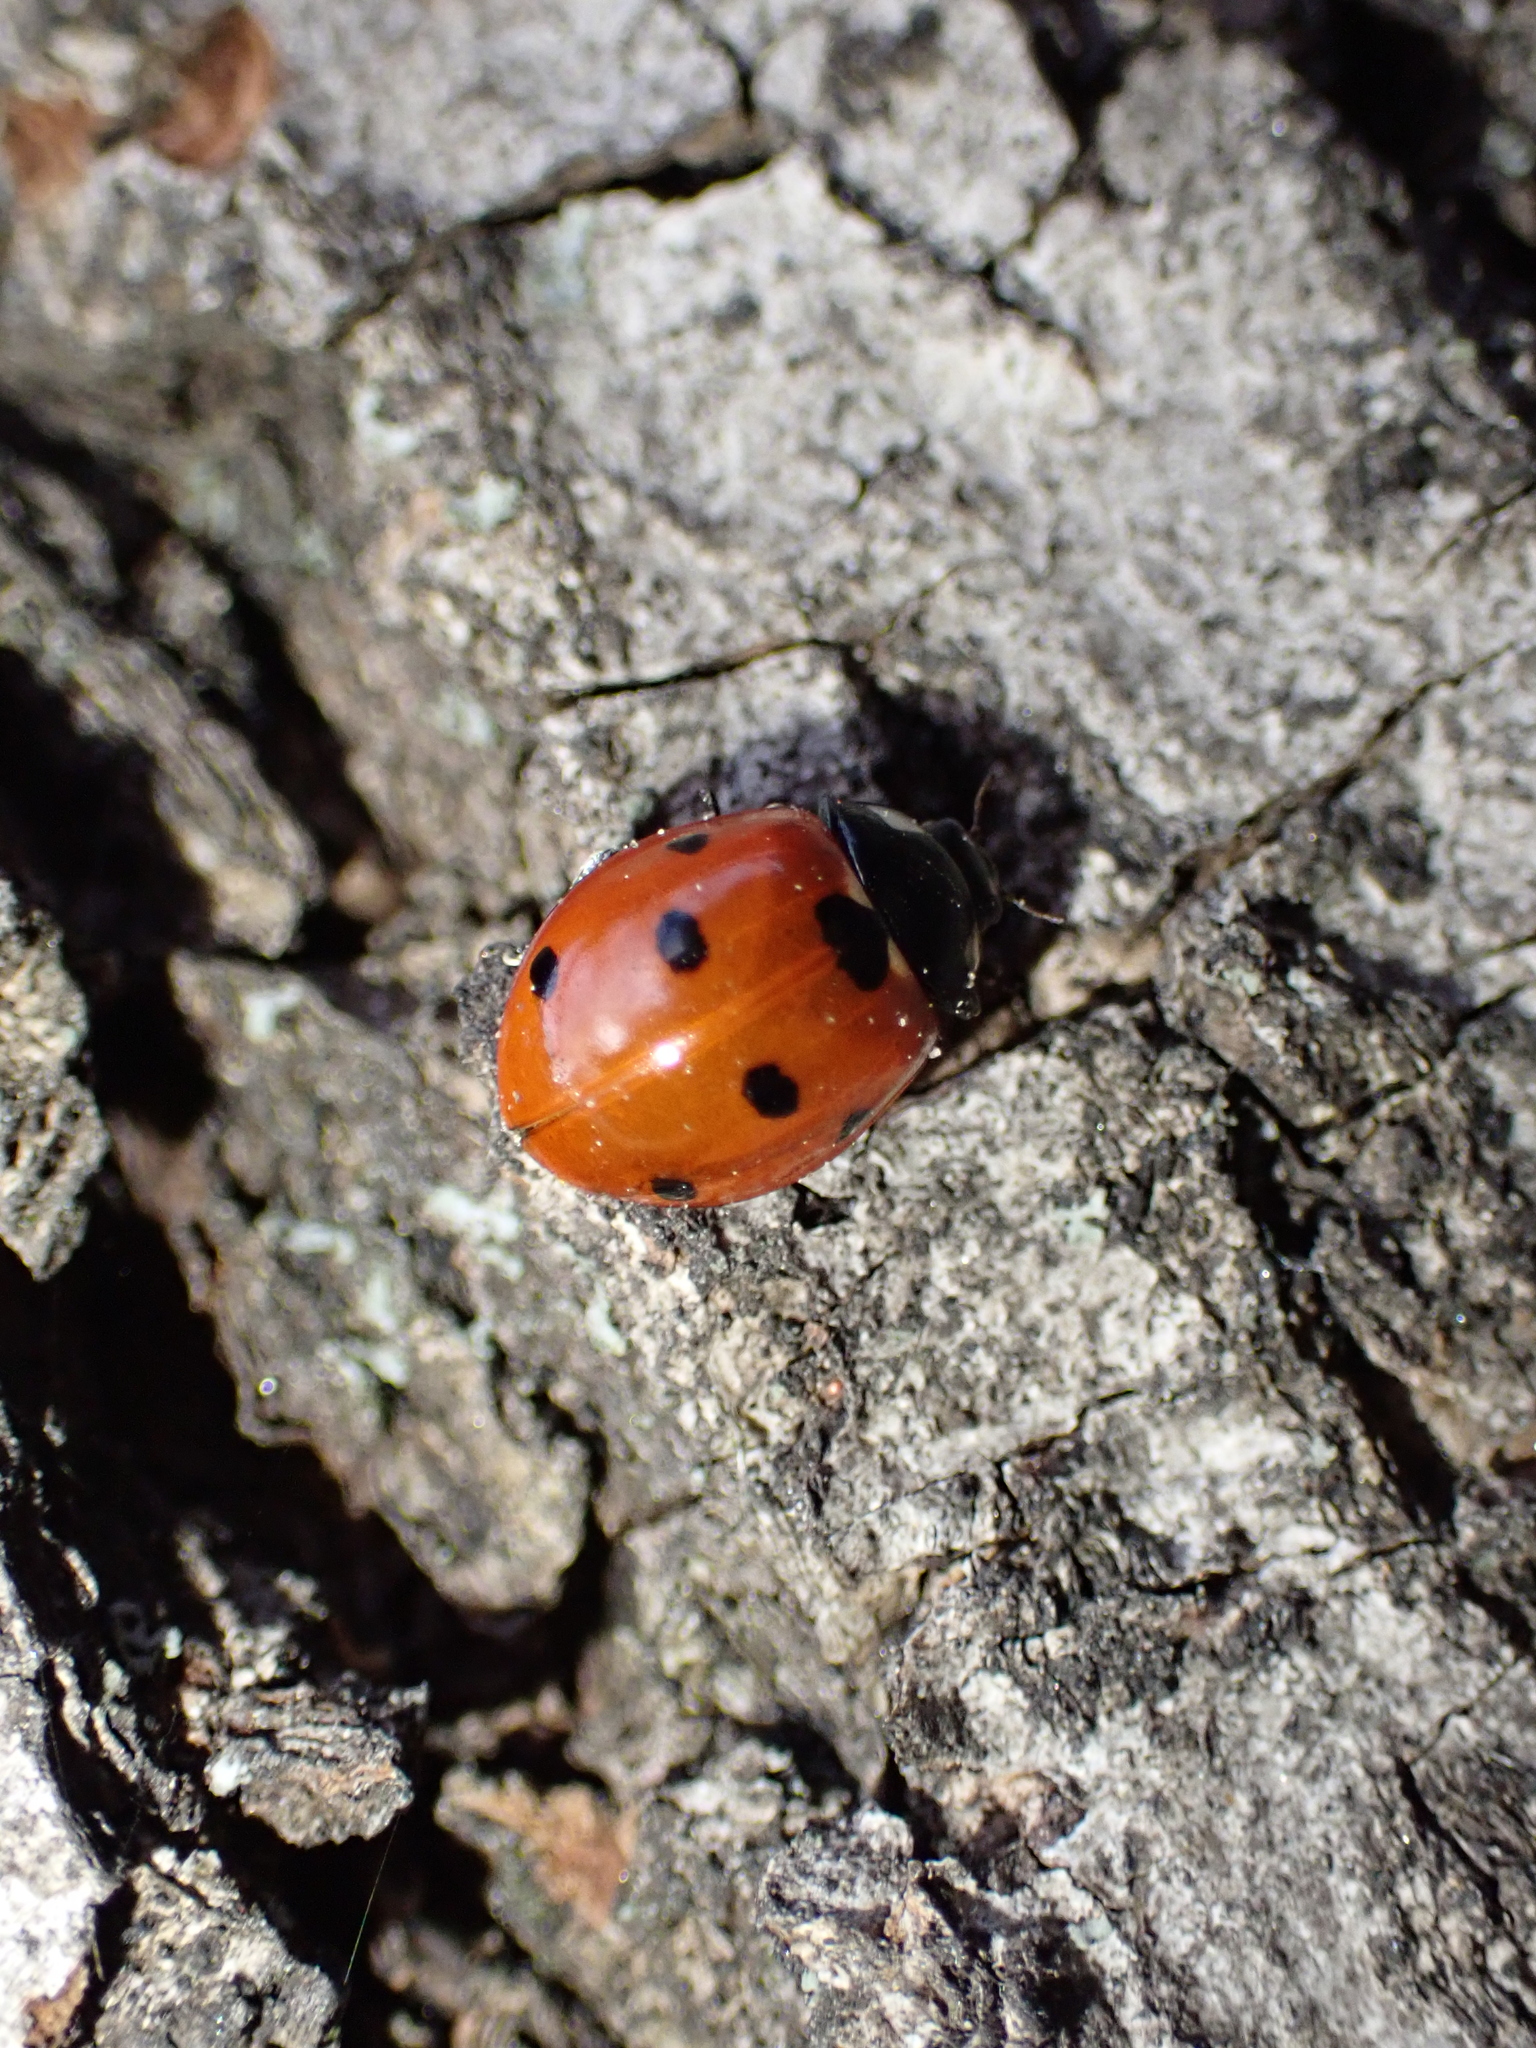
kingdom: Animalia
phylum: Arthropoda
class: Insecta
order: Coleoptera
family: Coccinellidae
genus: Coccinella
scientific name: Coccinella septempunctata
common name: Sevenspotted lady beetle
